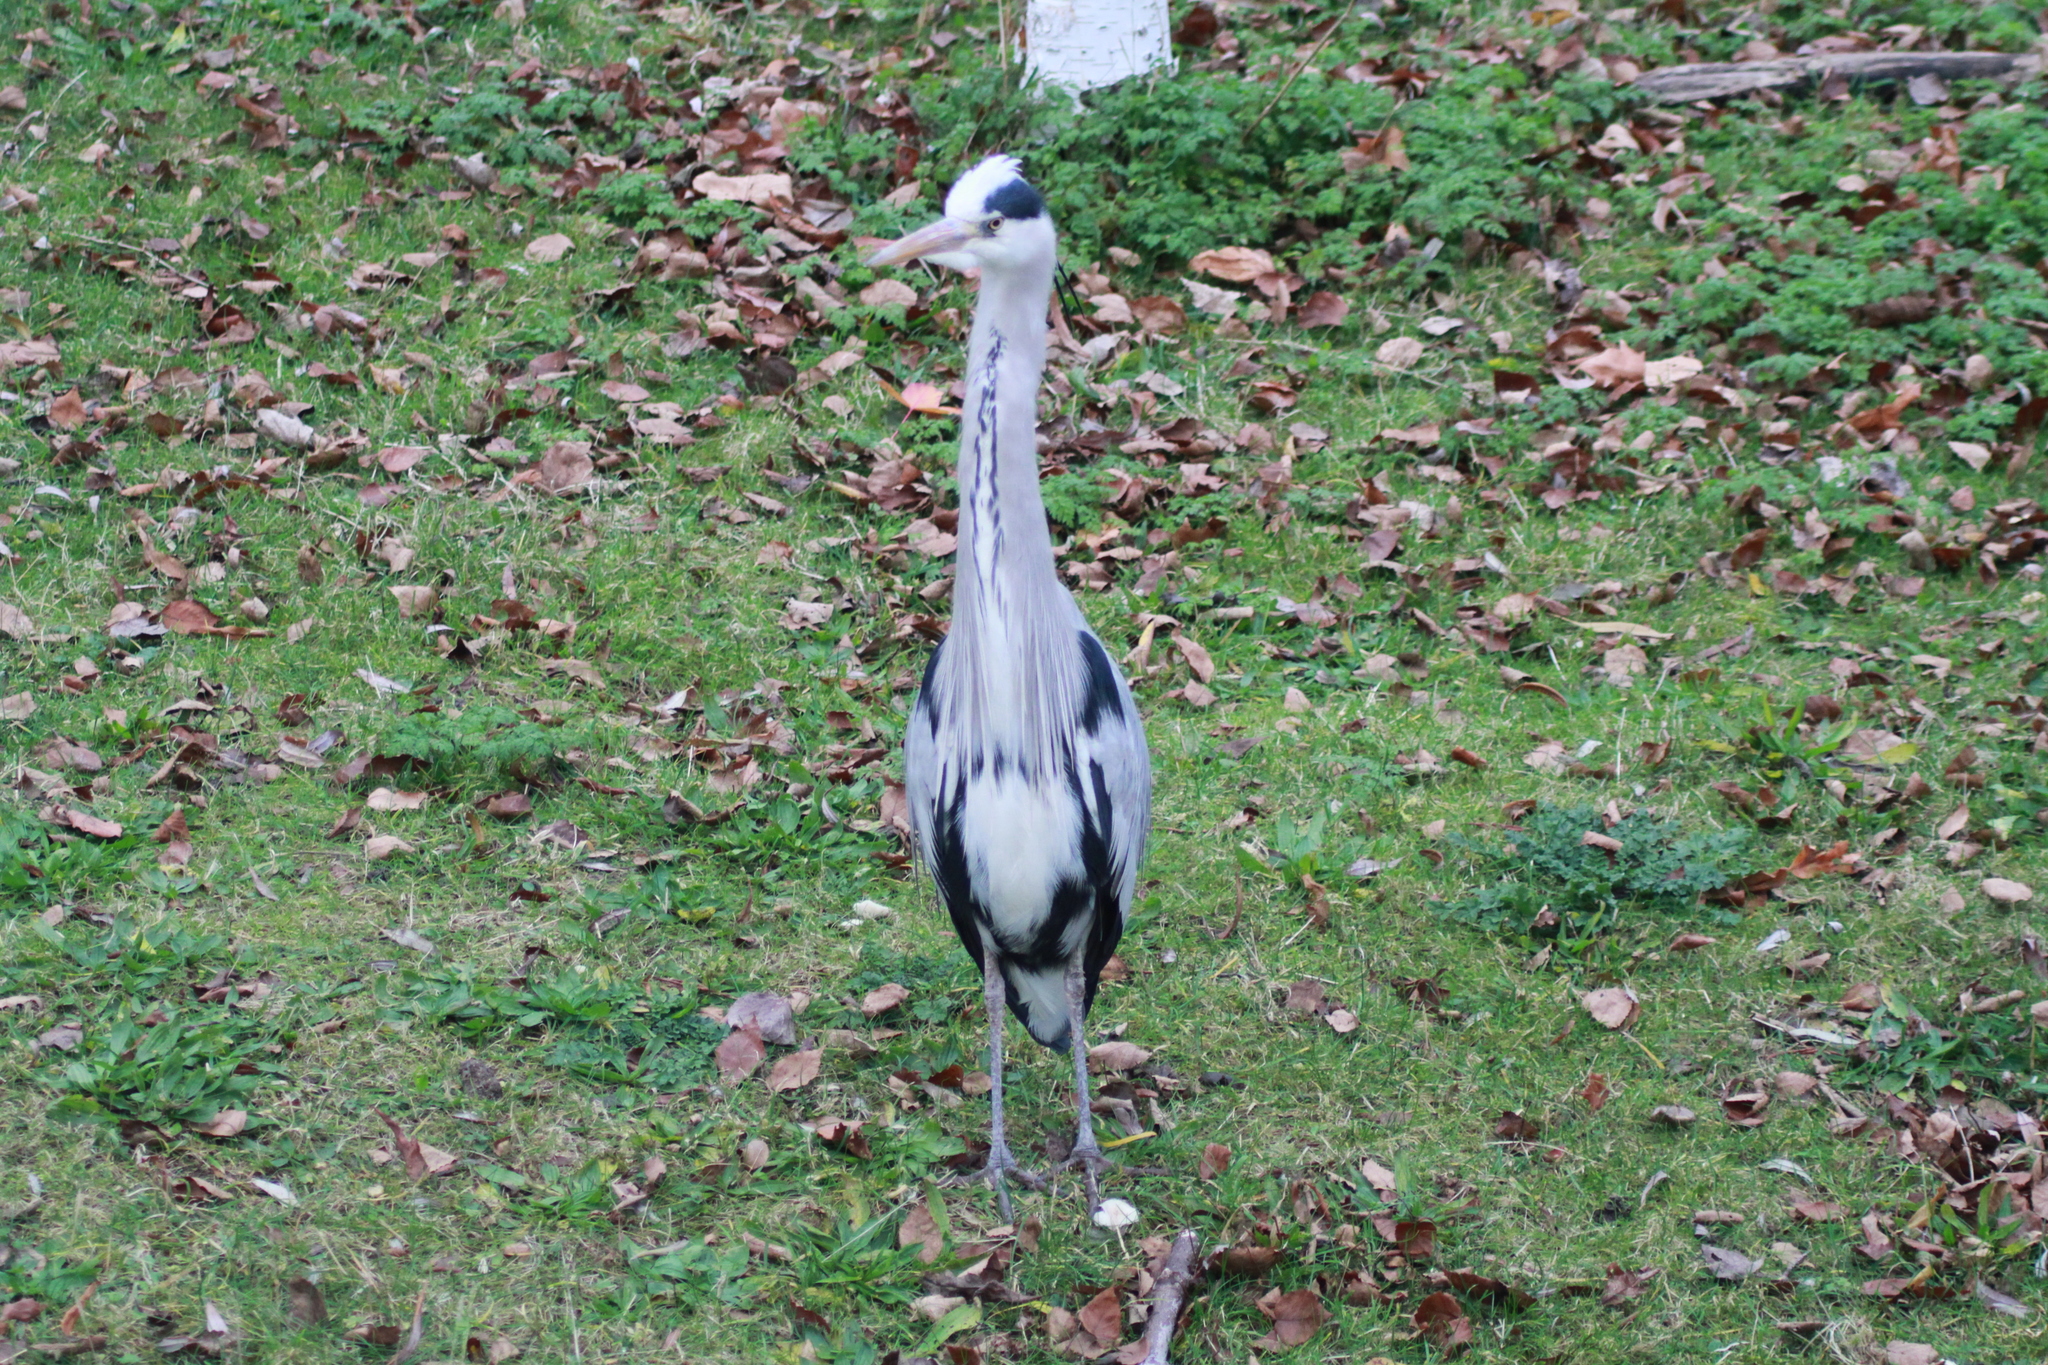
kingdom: Animalia
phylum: Chordata
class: Aves
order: Pelecaniformes
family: Ardeidae
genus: Ardea
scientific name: Ardea cinerea
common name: Grey heron
